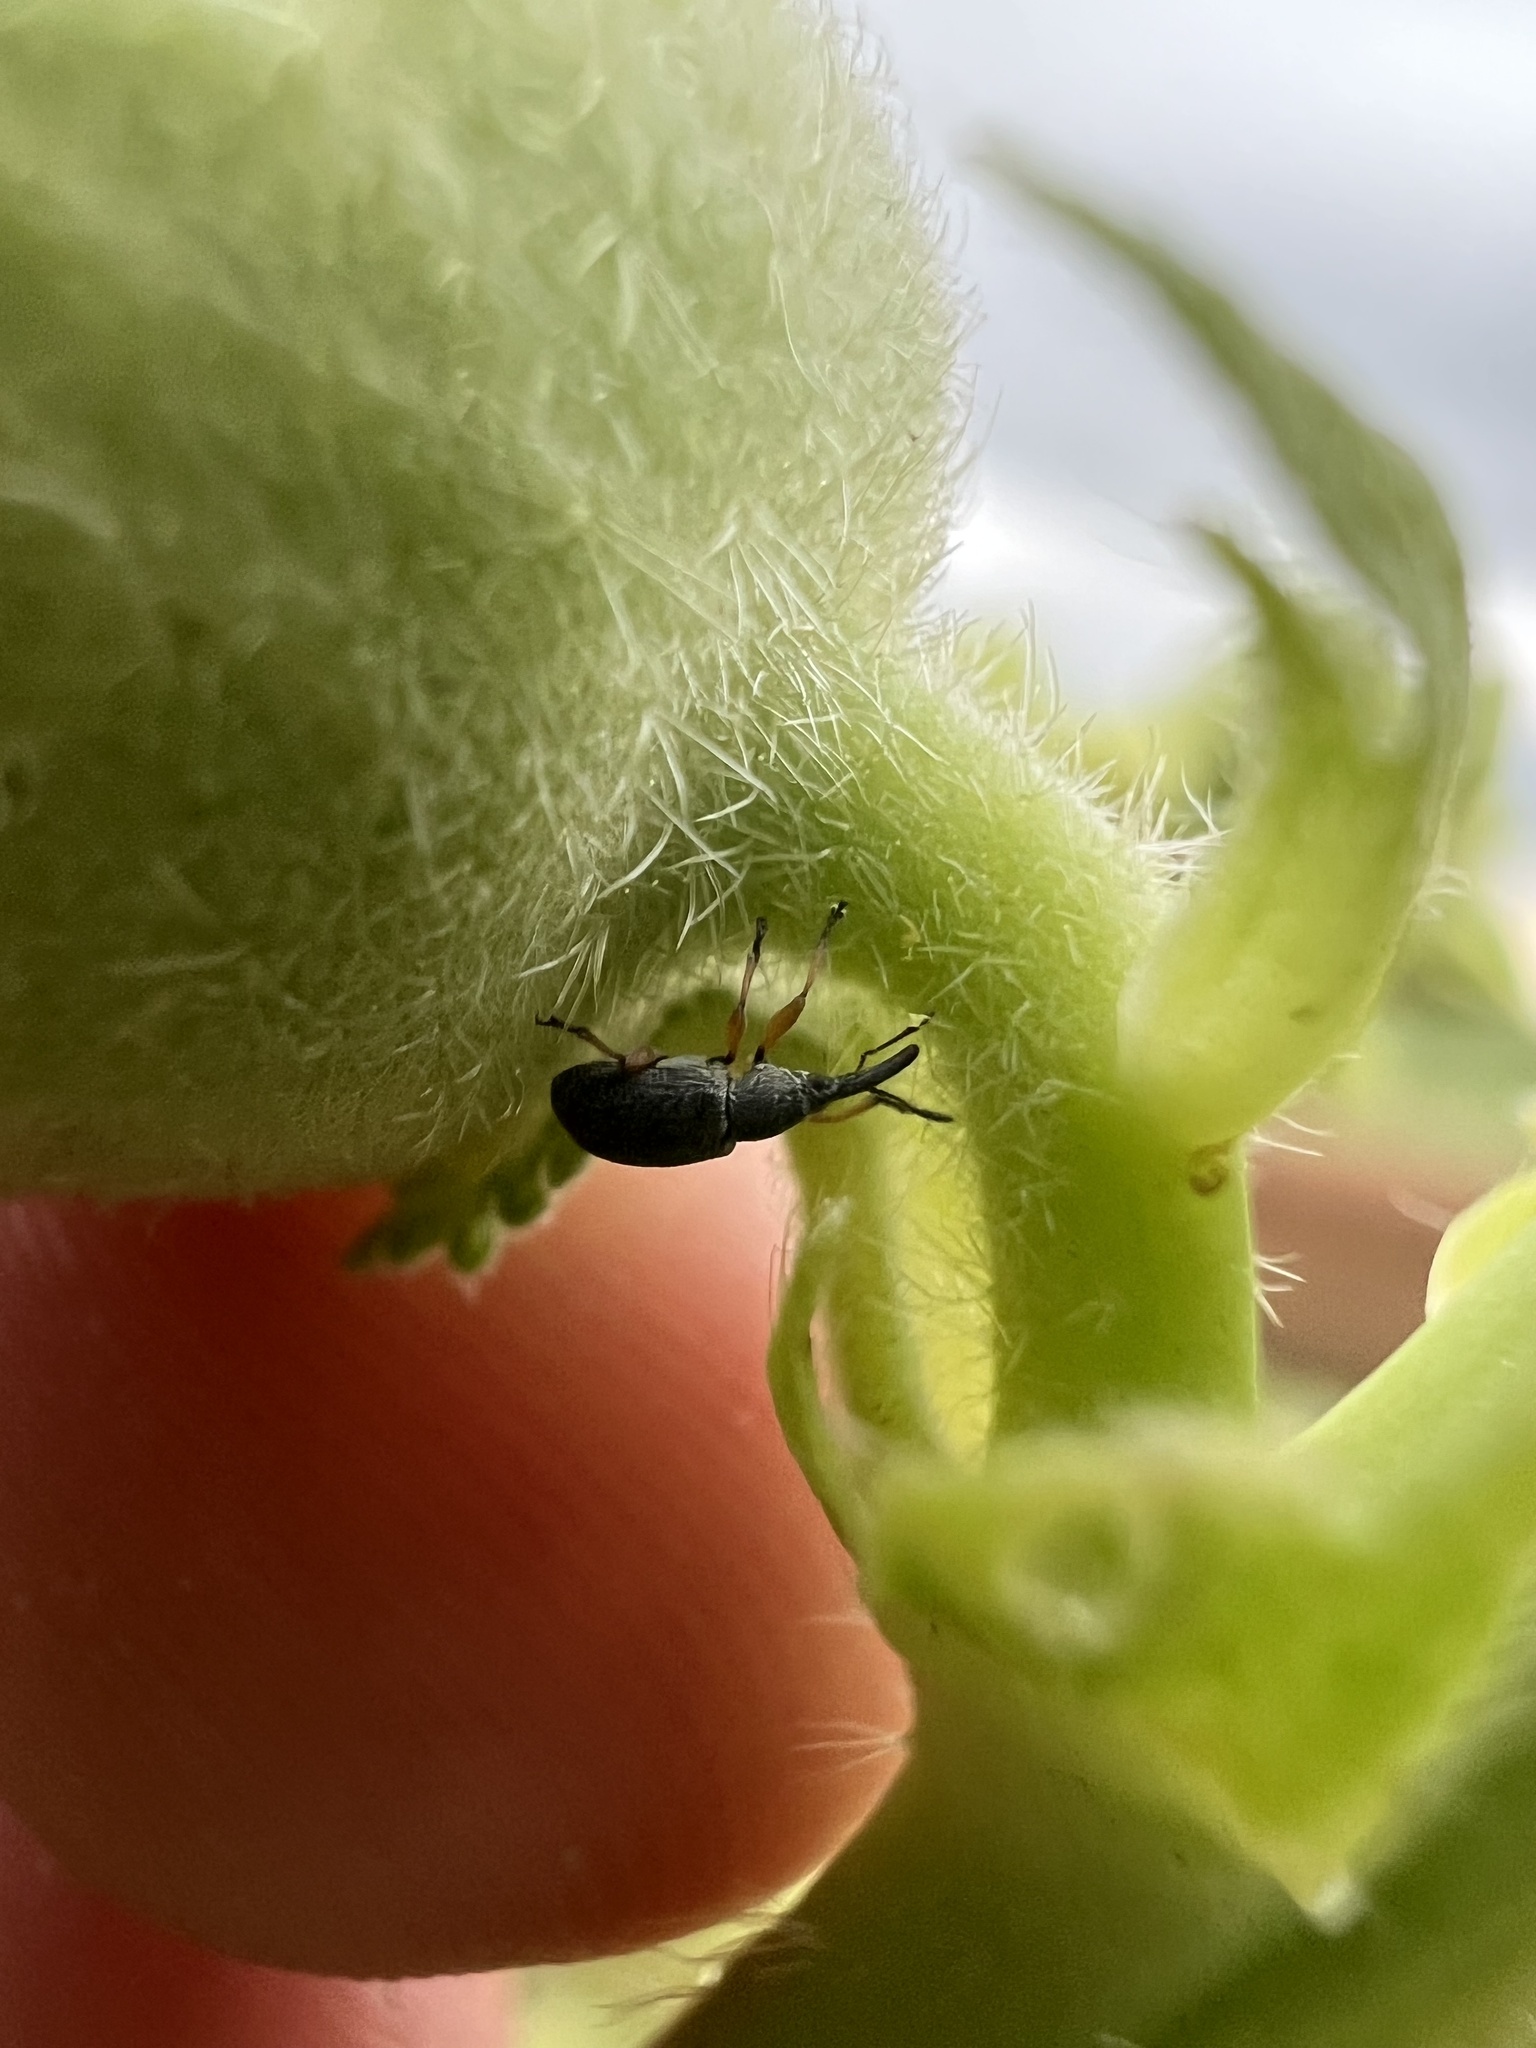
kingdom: Animalia
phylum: Arthropoda
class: Insecta
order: Coleoptera
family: Brentidae
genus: Rhopalapion
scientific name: Rhopalapion longirostre
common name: Hollyhock weevil
